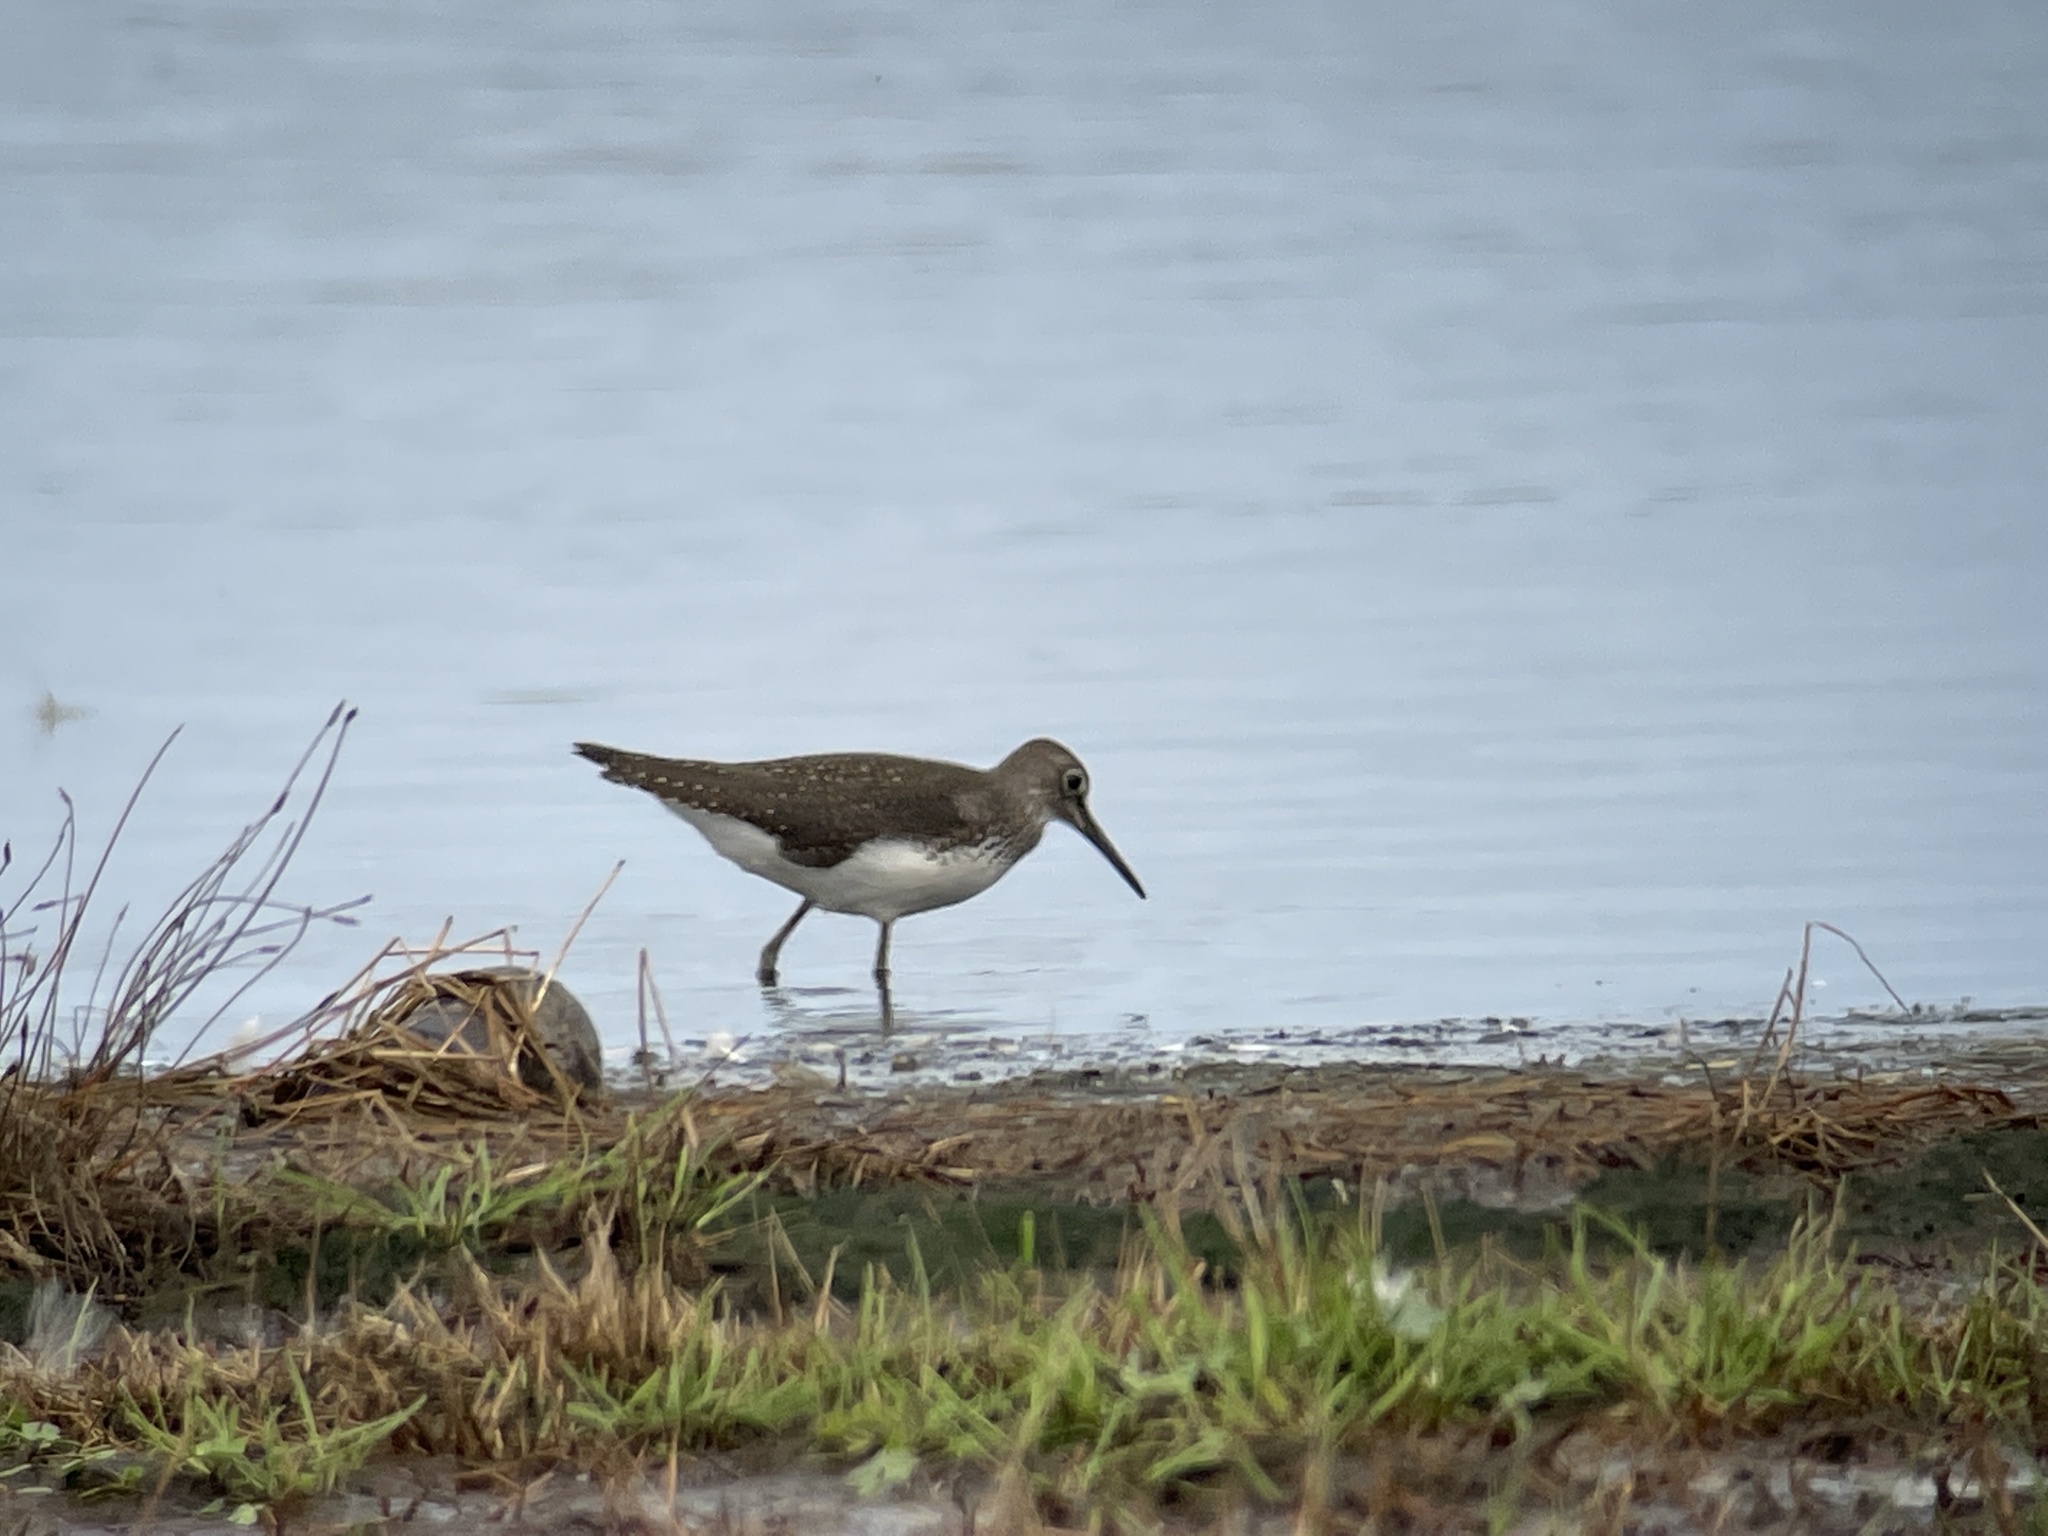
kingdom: Animalia
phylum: Chordata
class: Aves
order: Charadriiformes
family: Scolopacidae
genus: Tringa
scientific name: Tringa ochropus
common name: Green sandpiper
